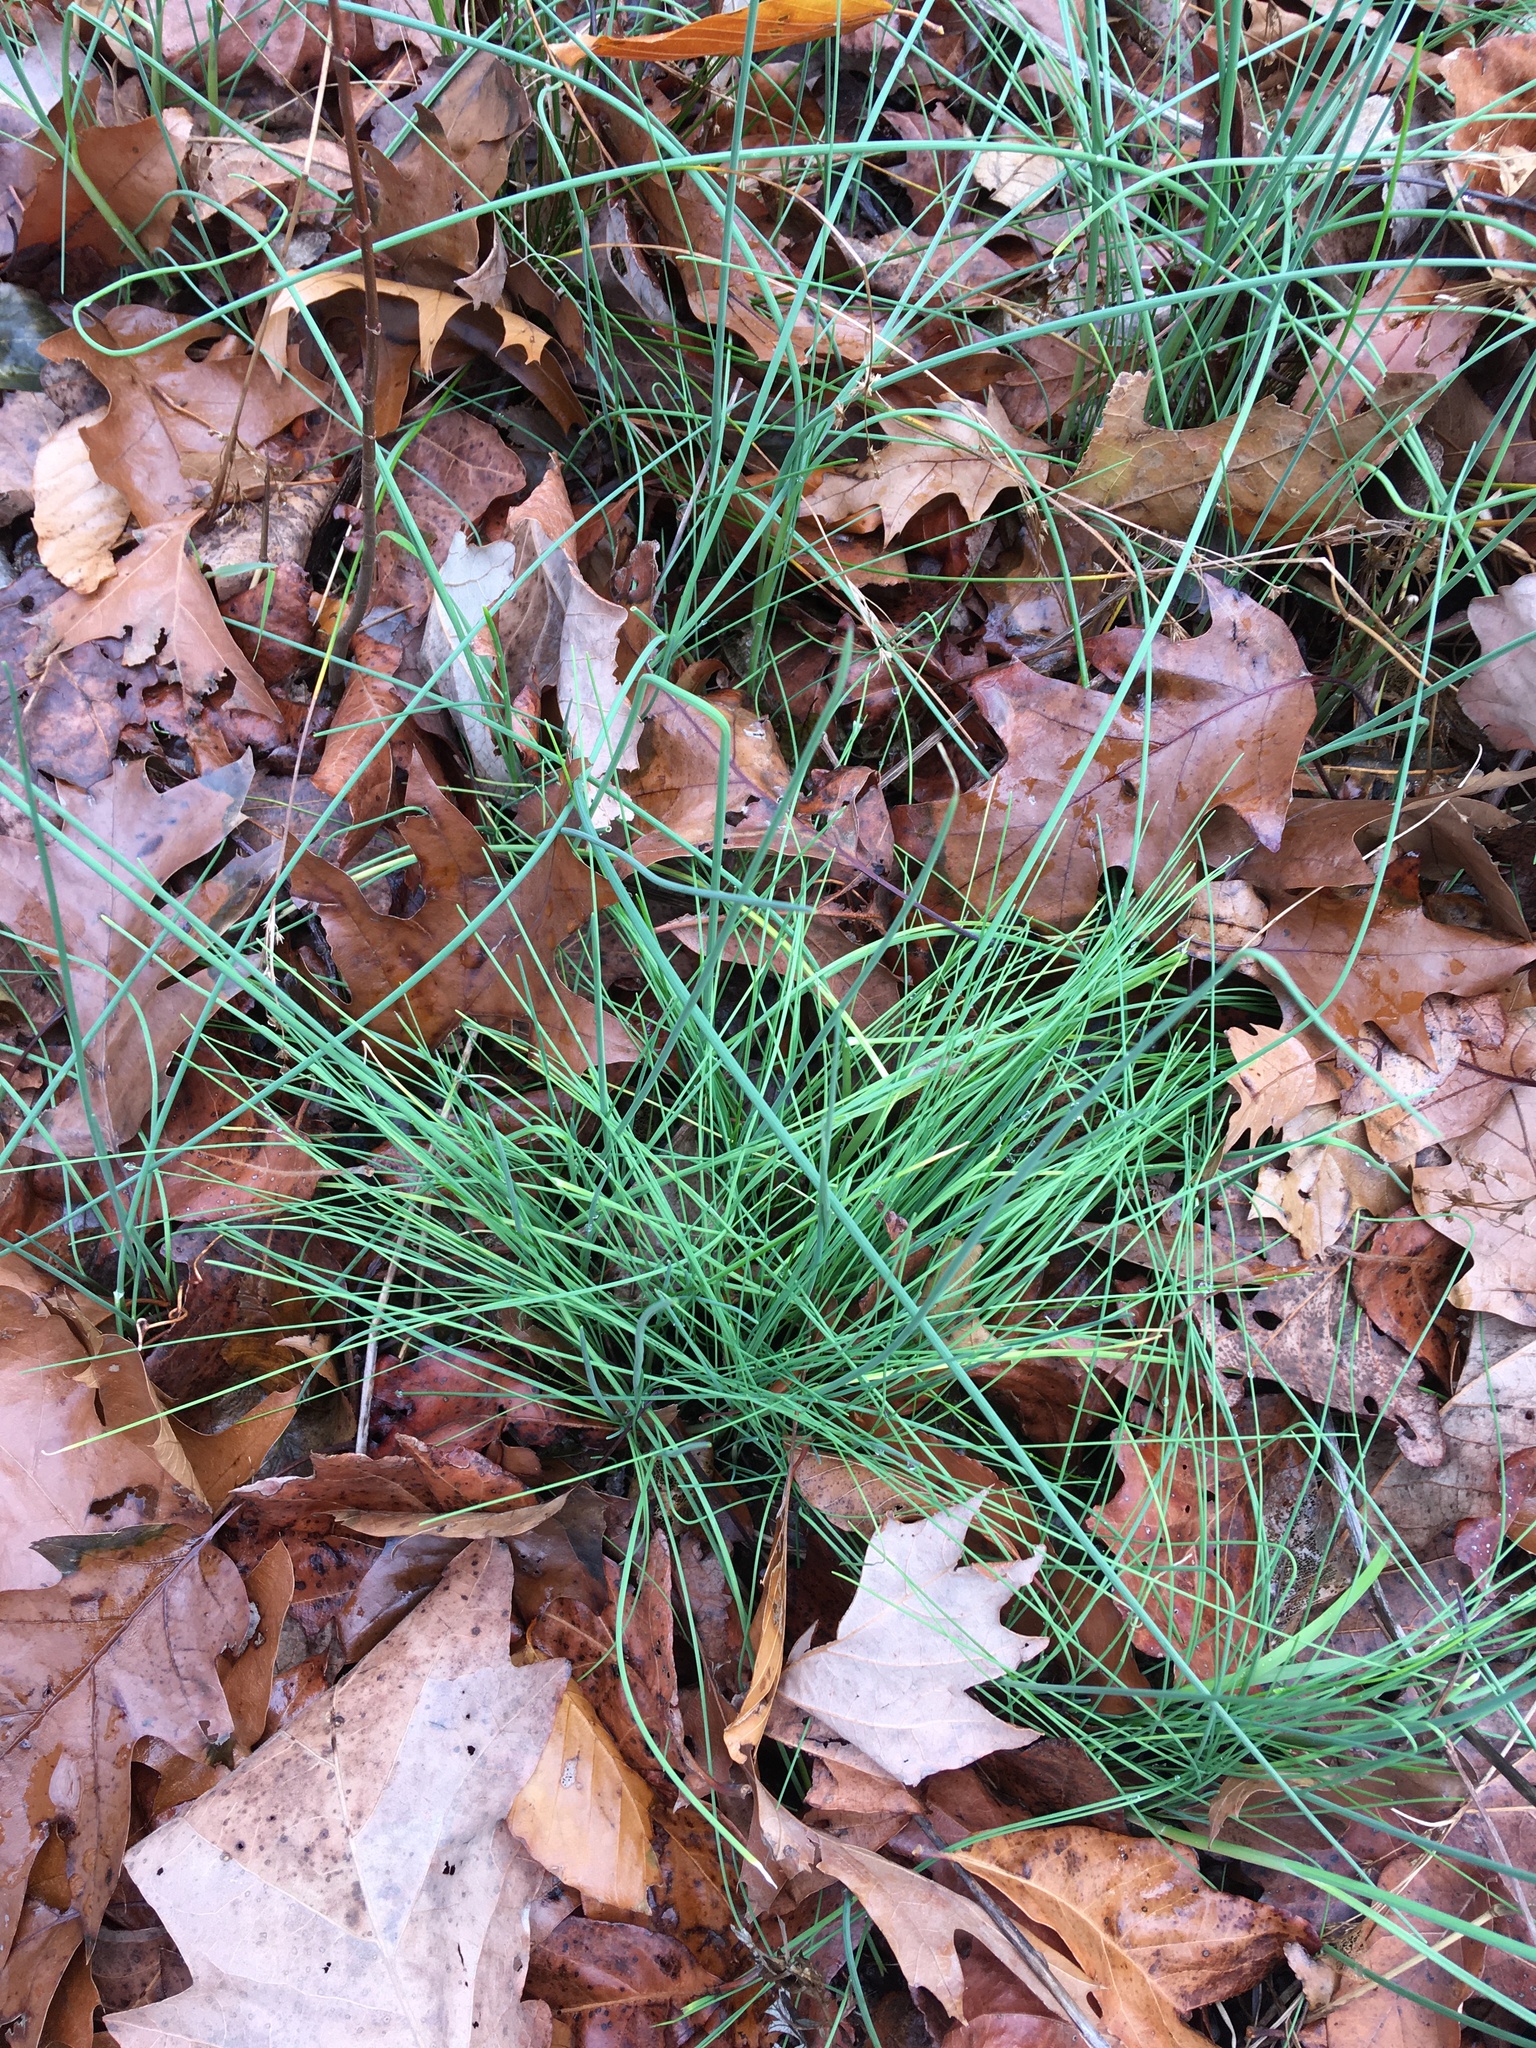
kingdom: Plantae
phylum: Tracheophyta
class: Liliopsida
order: Asparagales
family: Amaryllidaceae
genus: Allium
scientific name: Allium vineale
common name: Crow garlic
